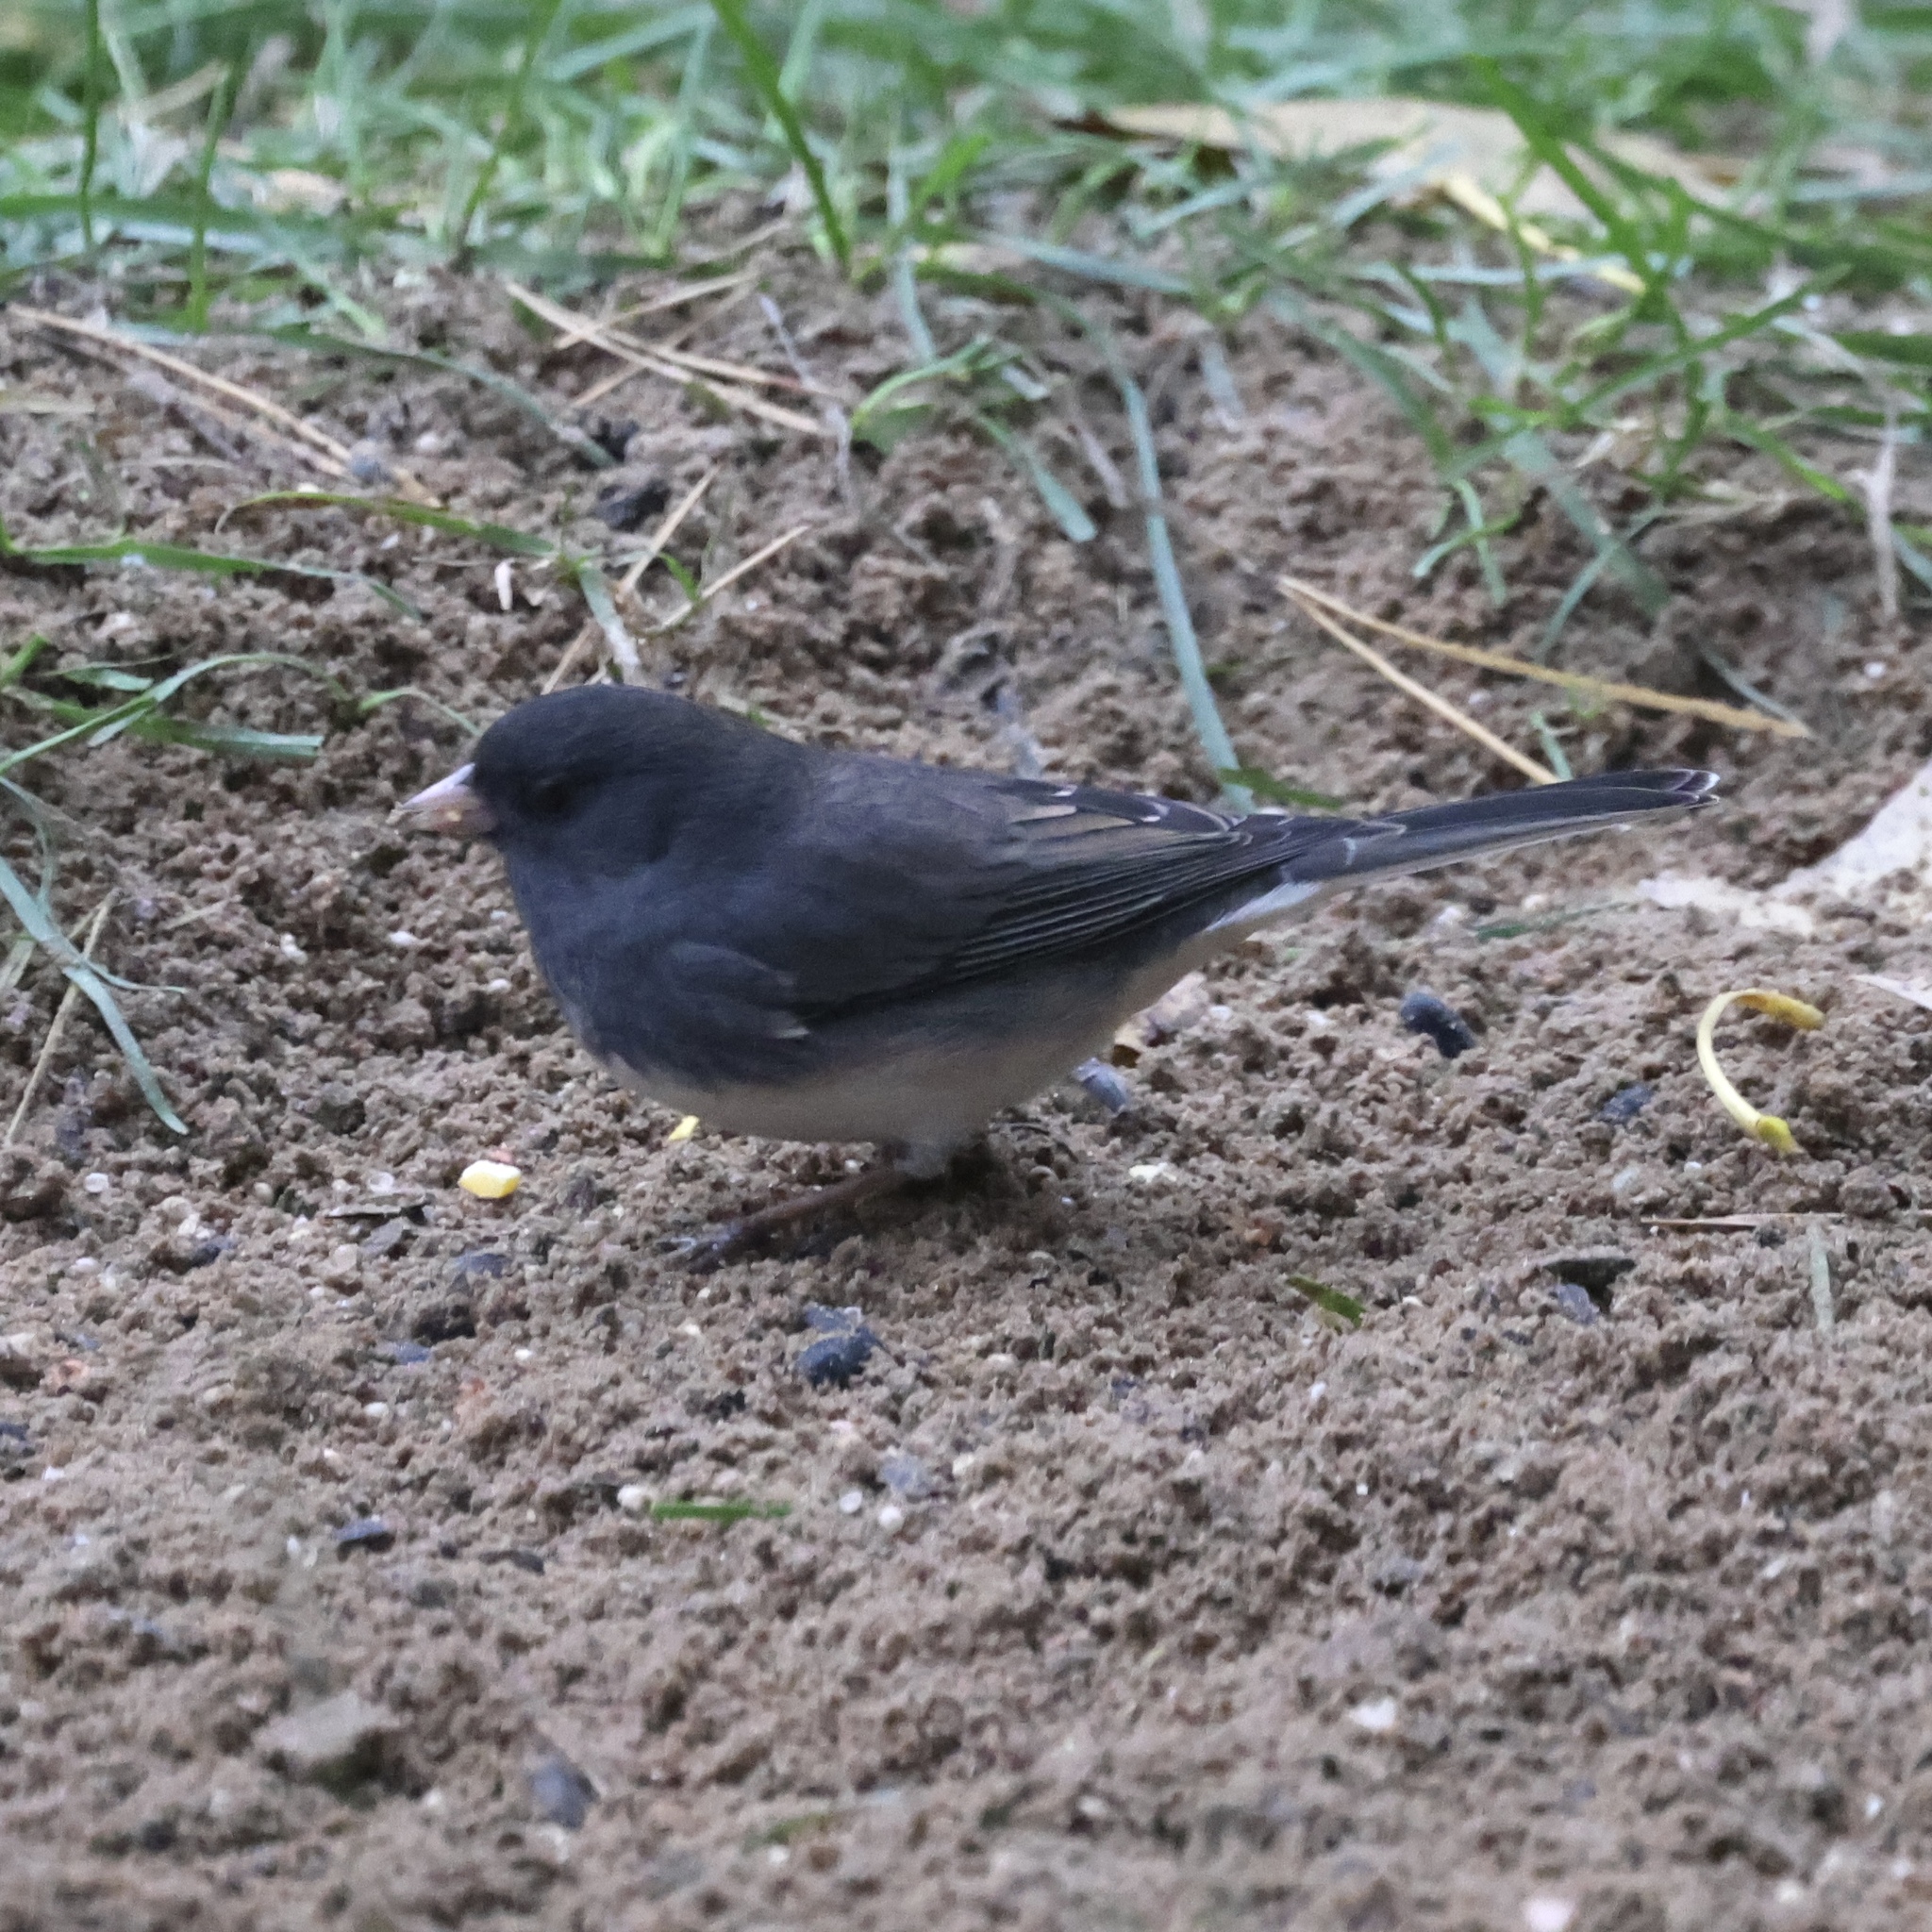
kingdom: Animalia
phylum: Chordata
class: Aves
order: Passeriformes
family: Passerellidae
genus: Junco
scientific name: Junco hyemalis
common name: Dark-eyed junco
